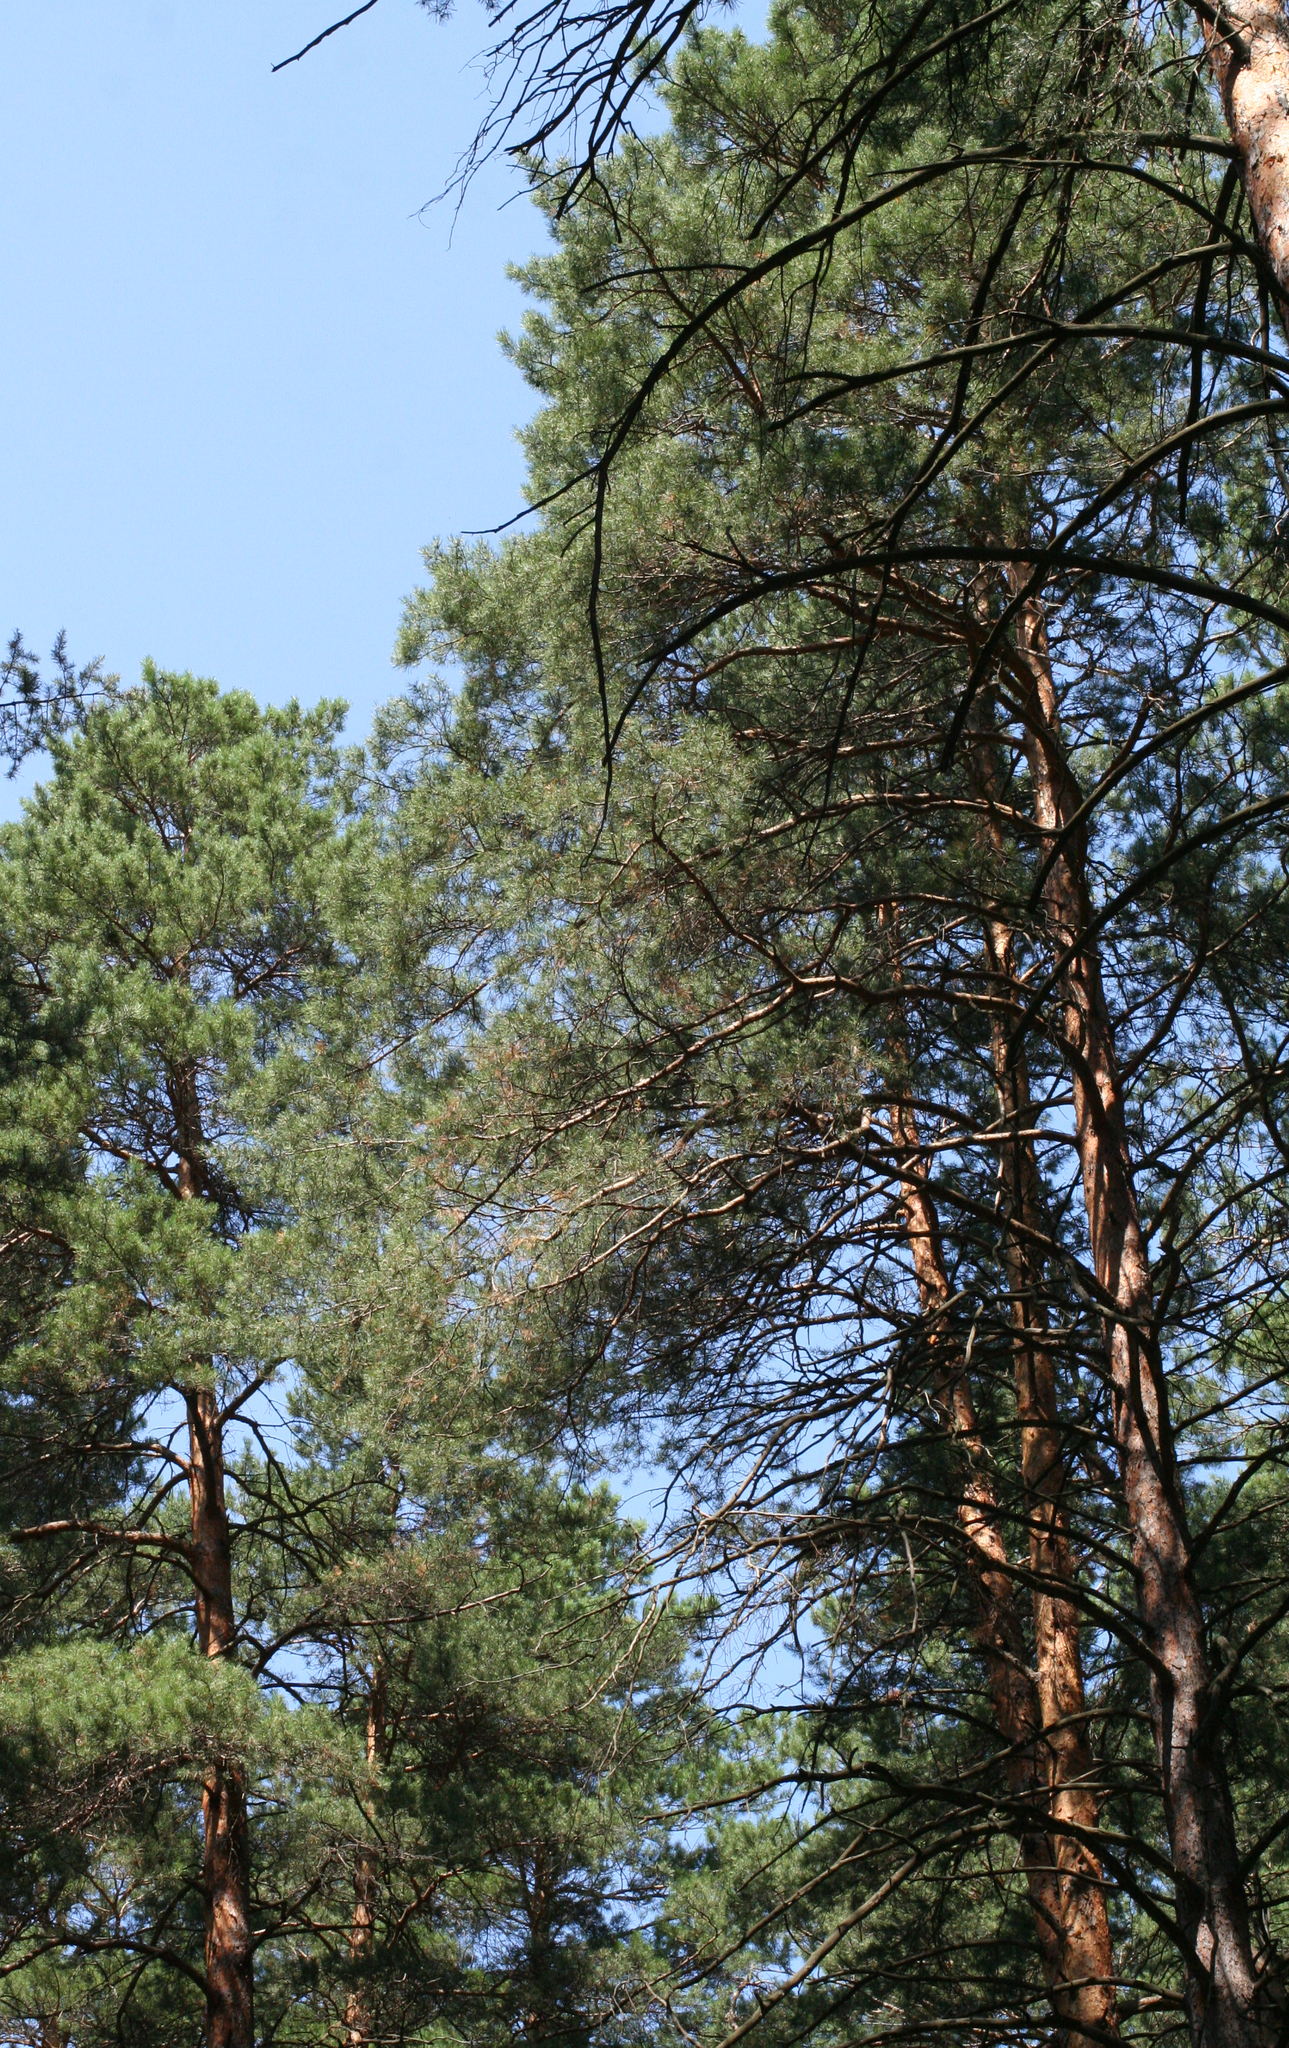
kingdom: Plantae
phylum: Tracheophyta
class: Pinopsida
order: Pinales
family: Pinaceae
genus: Pinus
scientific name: Pinus sylvestris
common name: Scots pine
